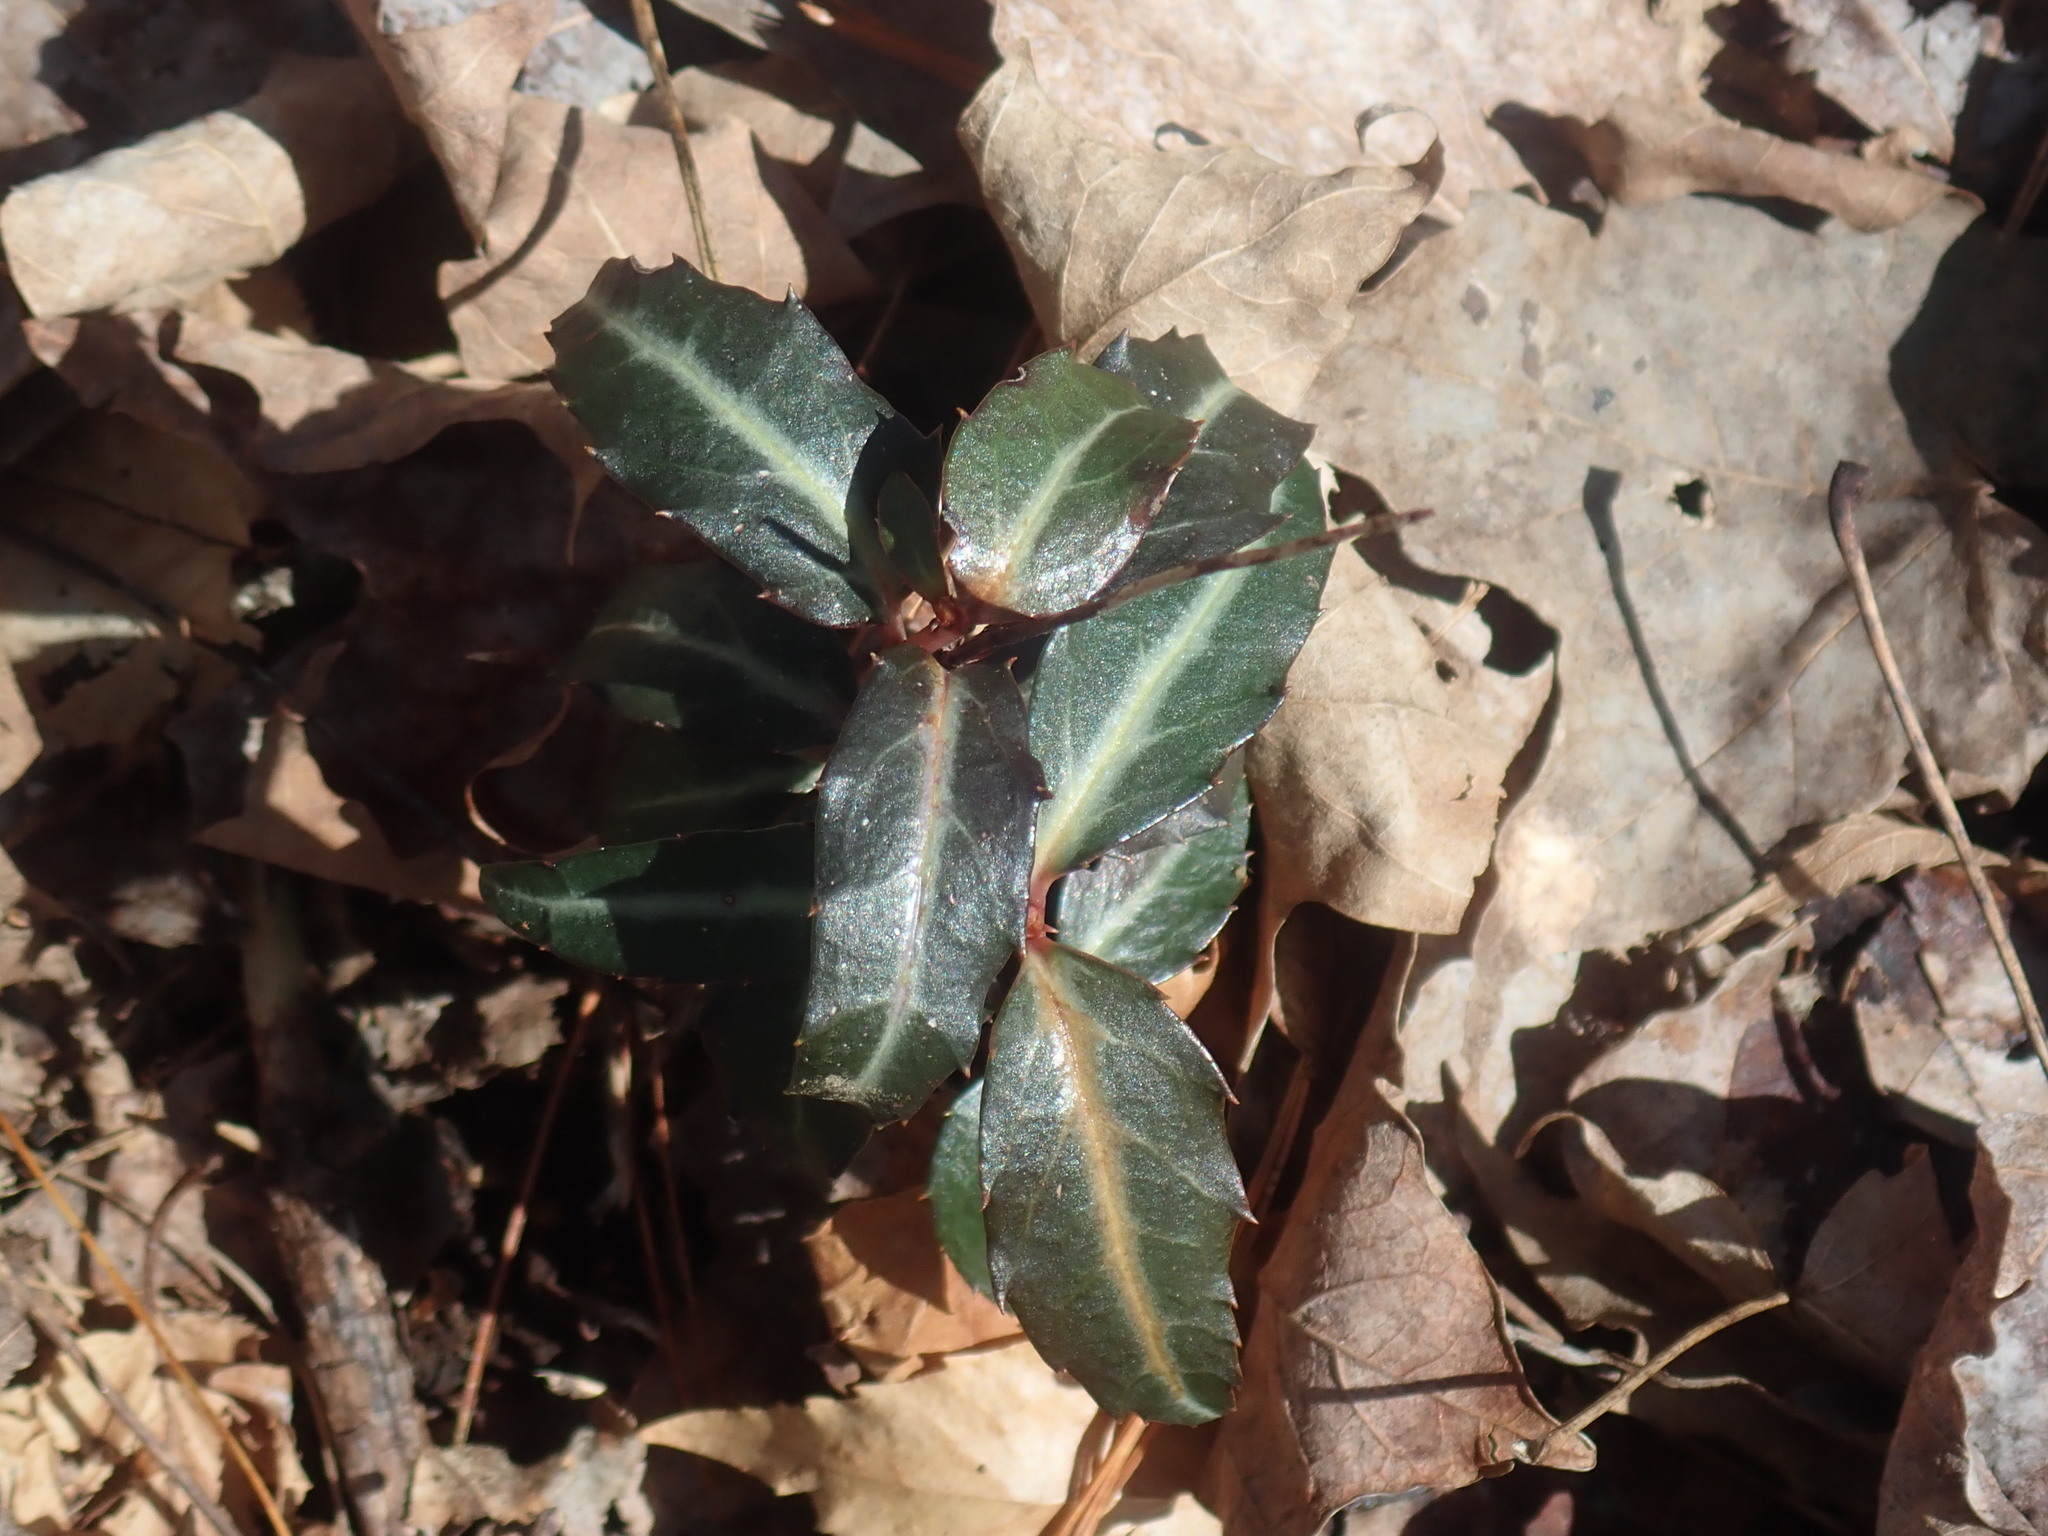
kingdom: Plantae
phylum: Tracheophyta
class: Magnoliopsida
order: Ericales
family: Ericaceae
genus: Chimaphila
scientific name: Chimaphila maculata
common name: Spotted pipsissewa
